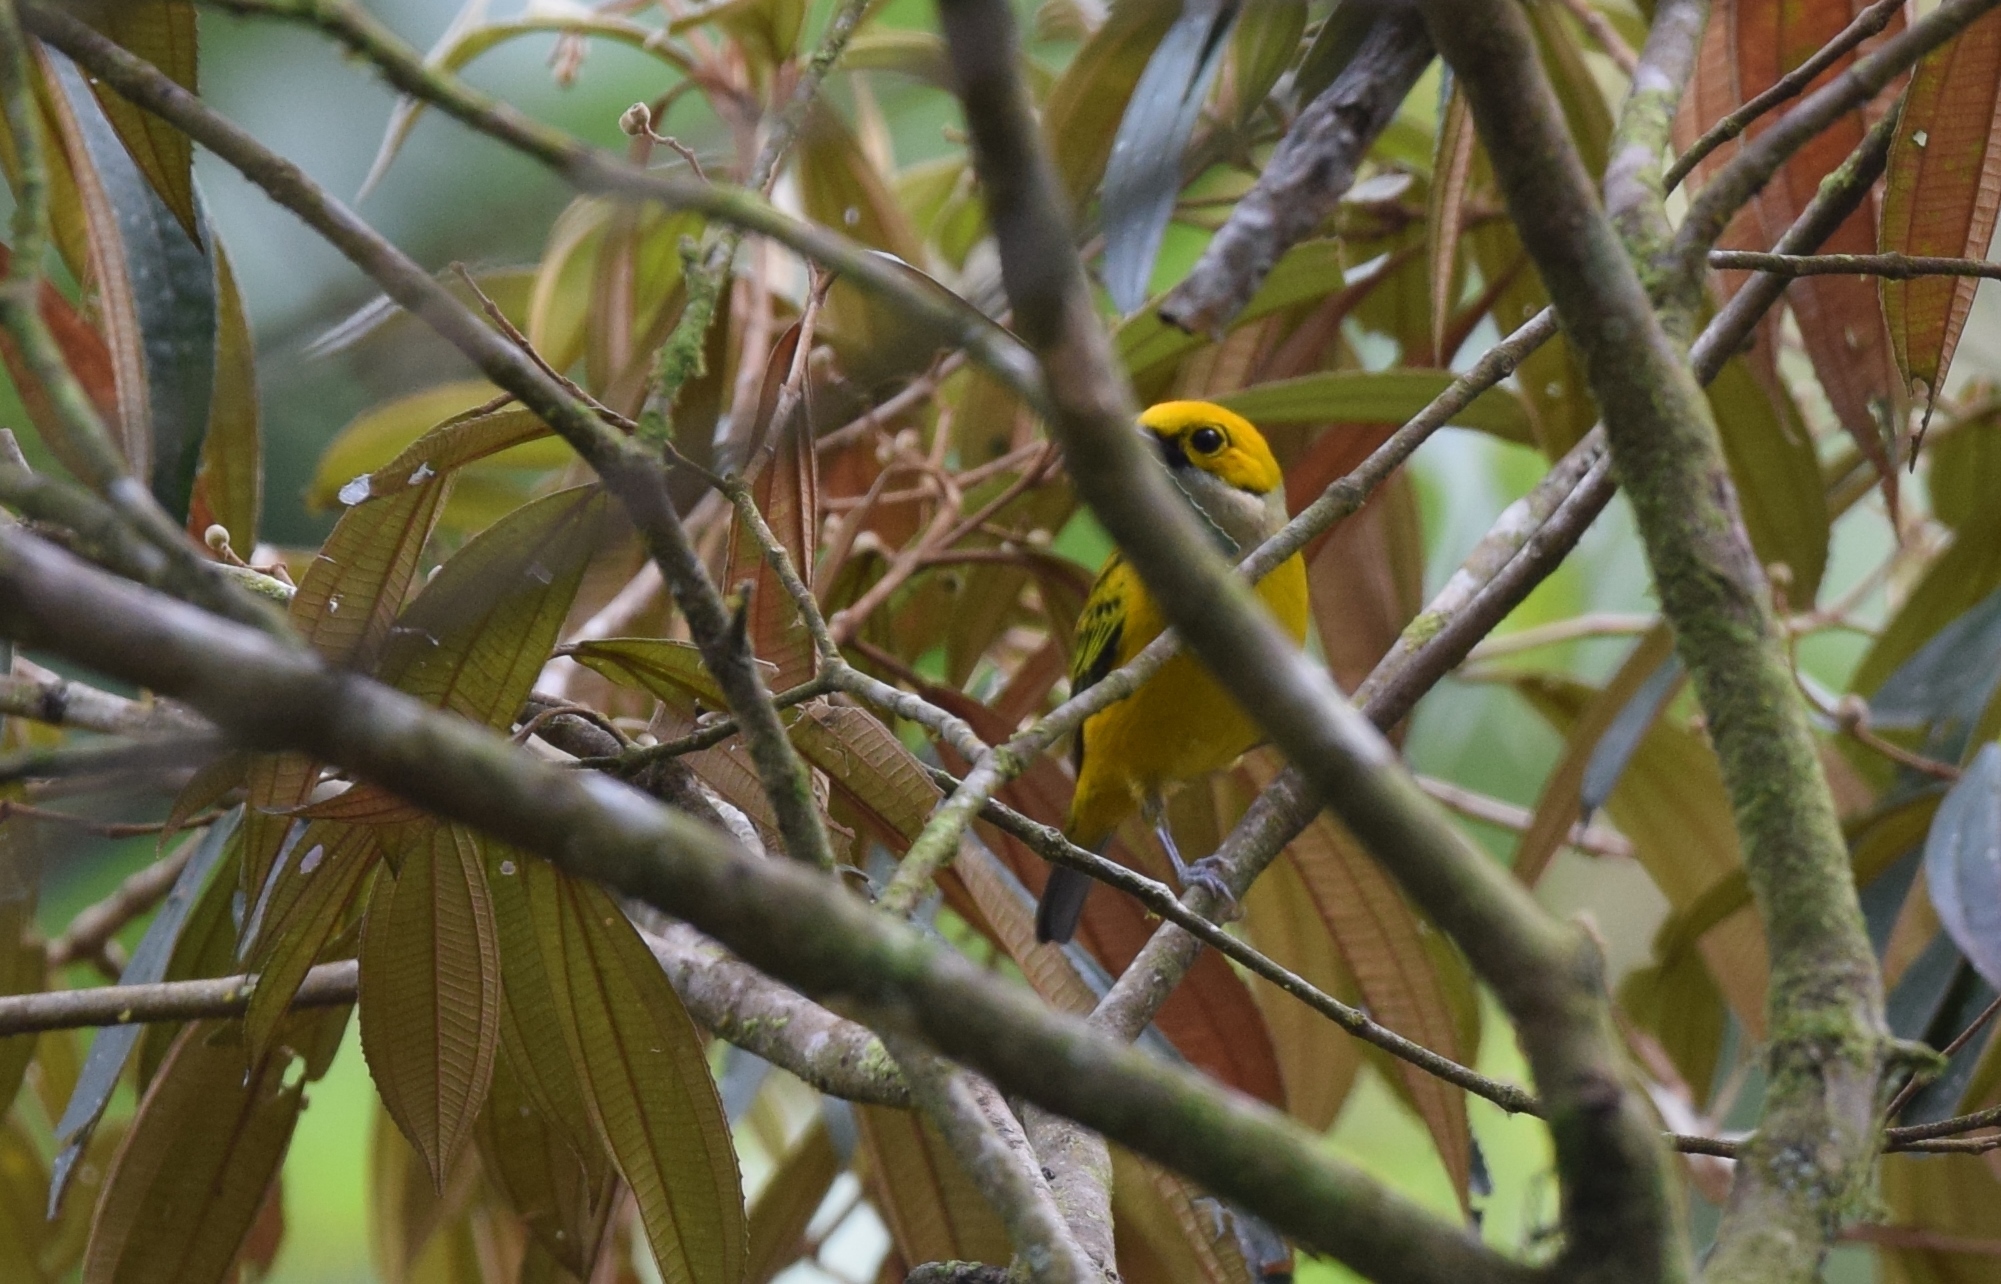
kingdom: Animalia
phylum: Chordata
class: Aves
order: Passeriformes
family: Thraupidae
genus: Tangara
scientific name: Tangara icterocephala
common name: Silver-throated tanager
